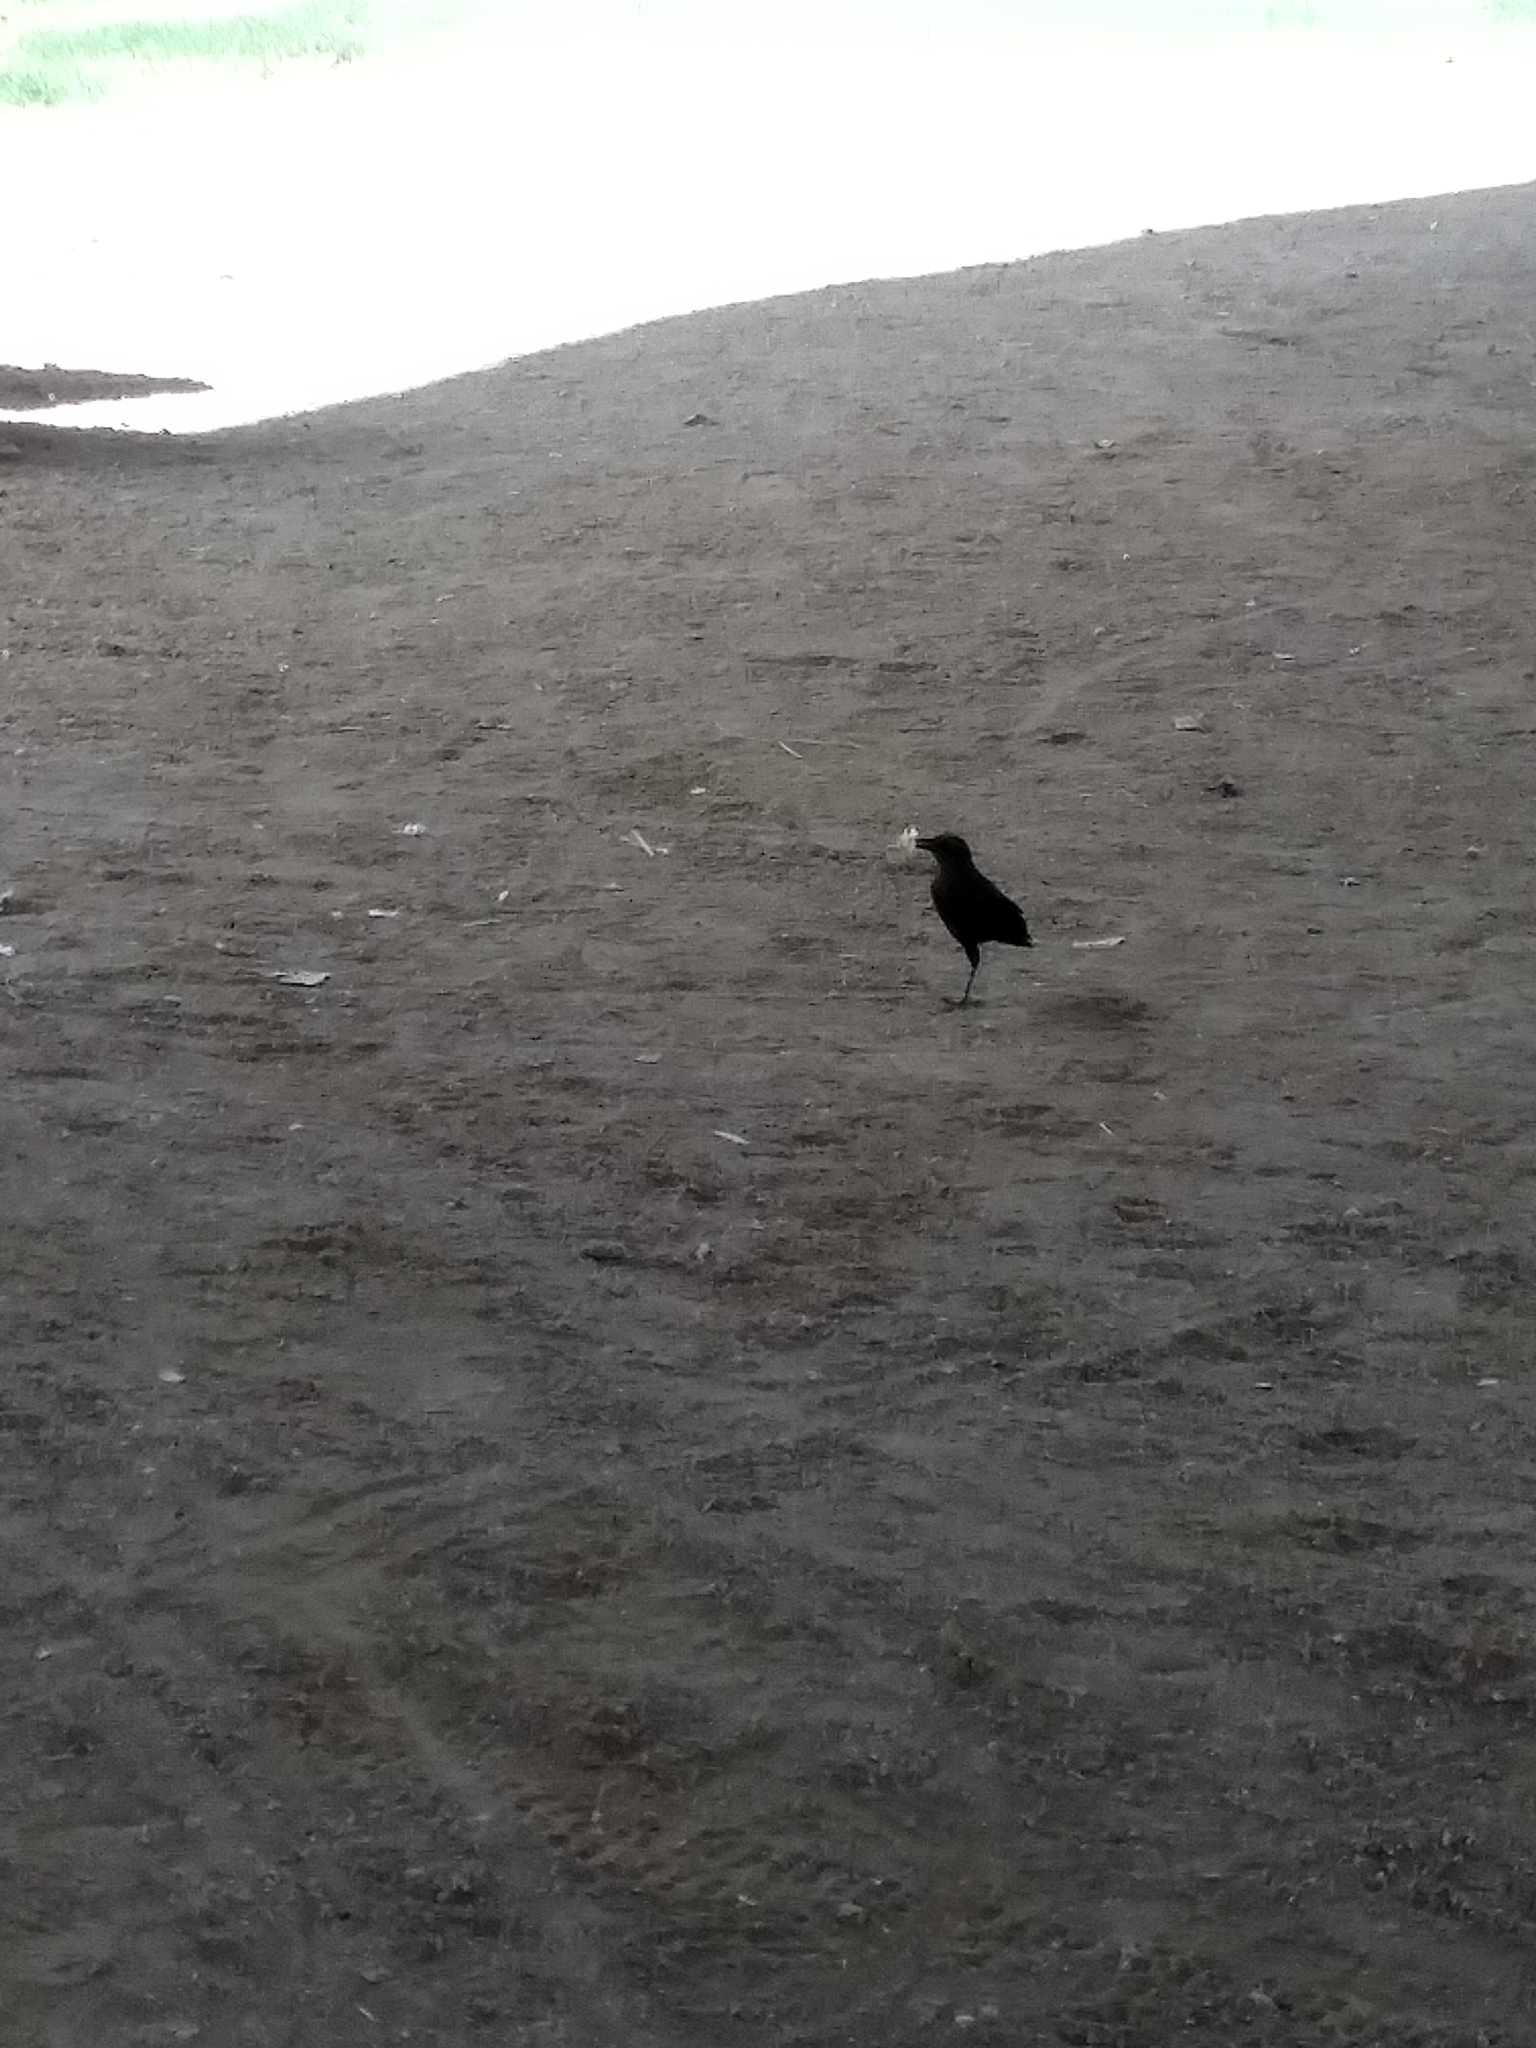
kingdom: Animalia
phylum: Chordata
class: Aves
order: Passeriformes
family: Icteridae
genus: Quiscalus
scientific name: Quiscalus mexicanus
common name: Great-tailed grackle
